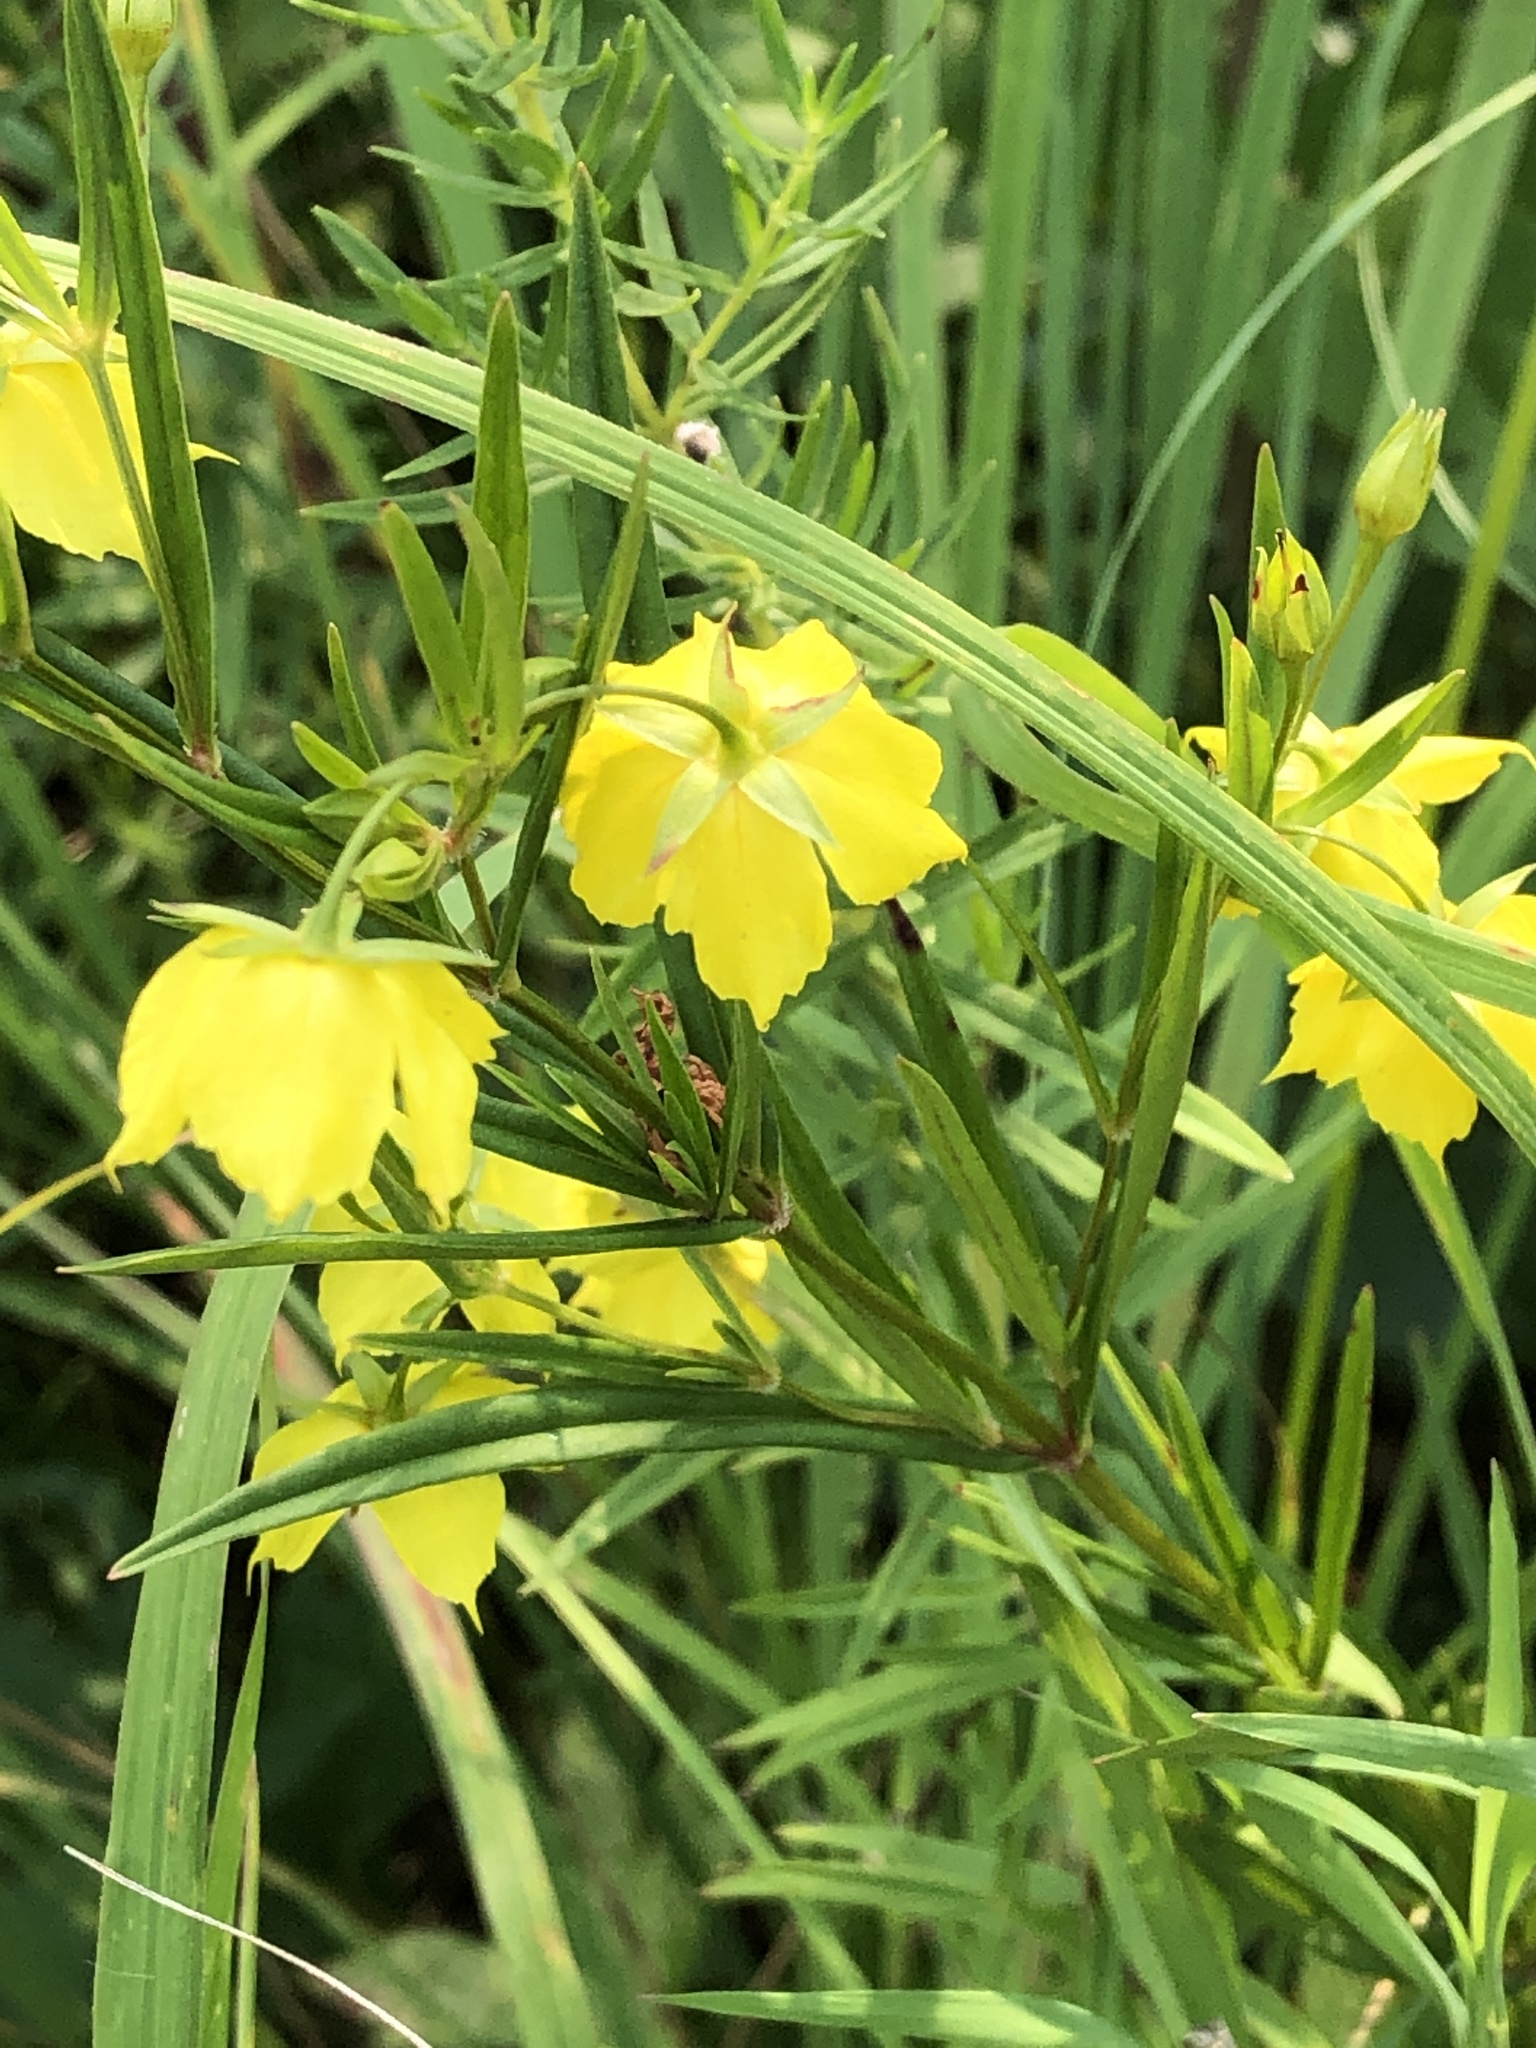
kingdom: Plantae
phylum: Tracheophyta
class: Magnoliopsida
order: Ericales
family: Primulaceae
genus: Lysimachia
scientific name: Lysimachia quadriflora
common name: Four-flowered loosestrife
